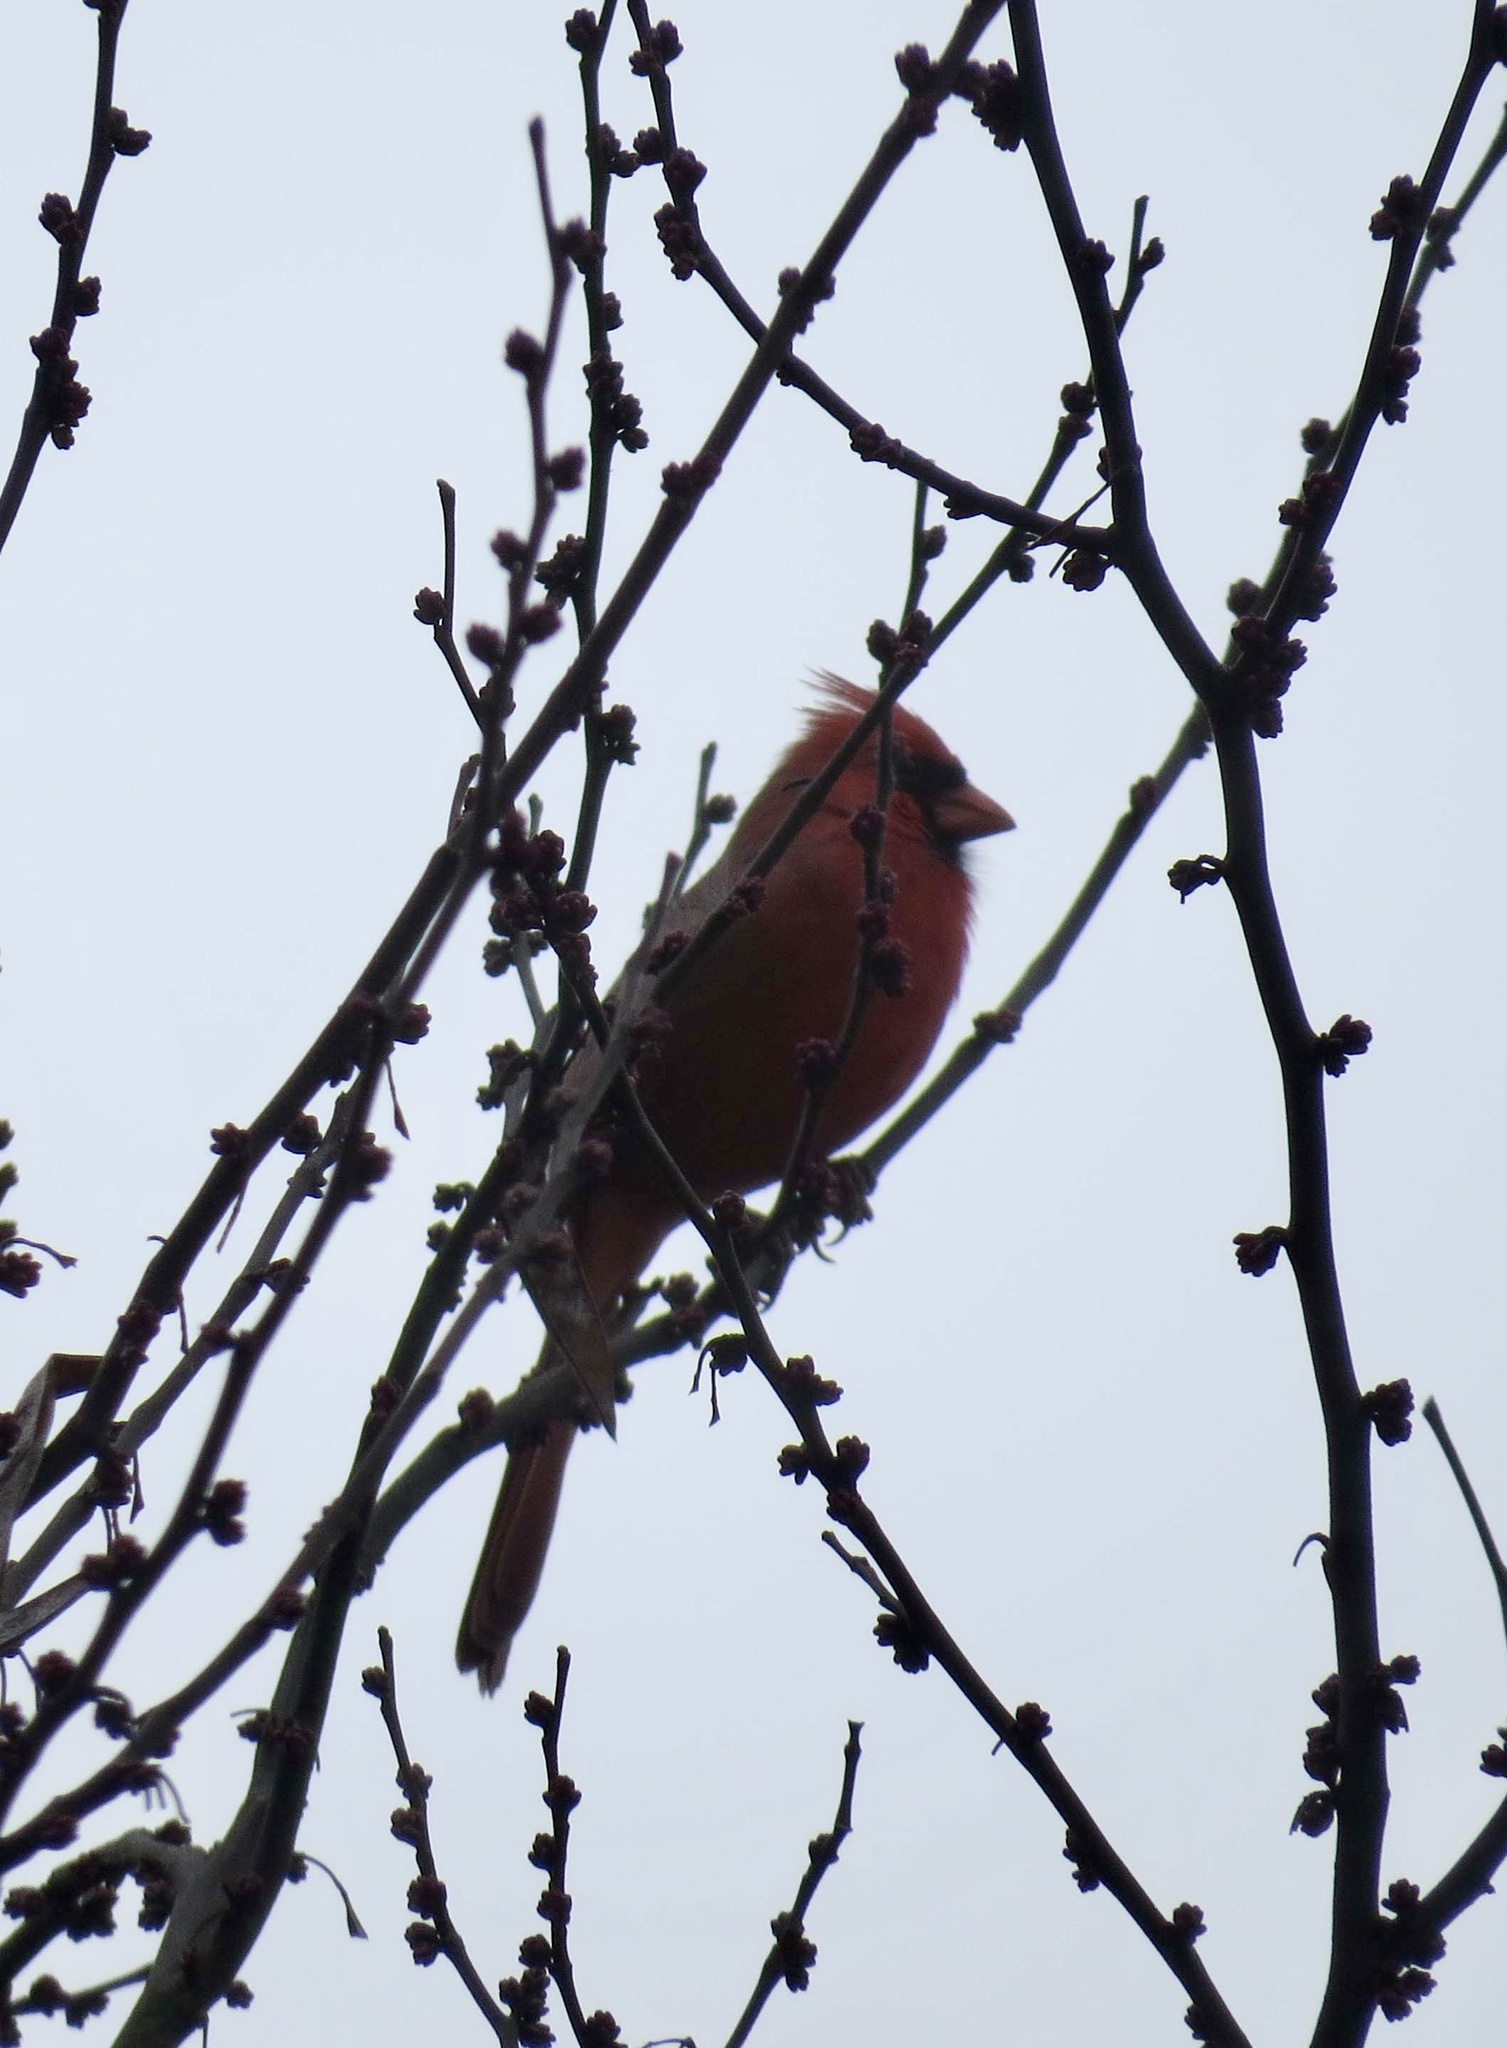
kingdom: Animalia
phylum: Chordata
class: Aves
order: Passeriformes
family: Cardinalidae
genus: Cardinalis
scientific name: Cardinalis cardinalis
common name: Northern cardinal
